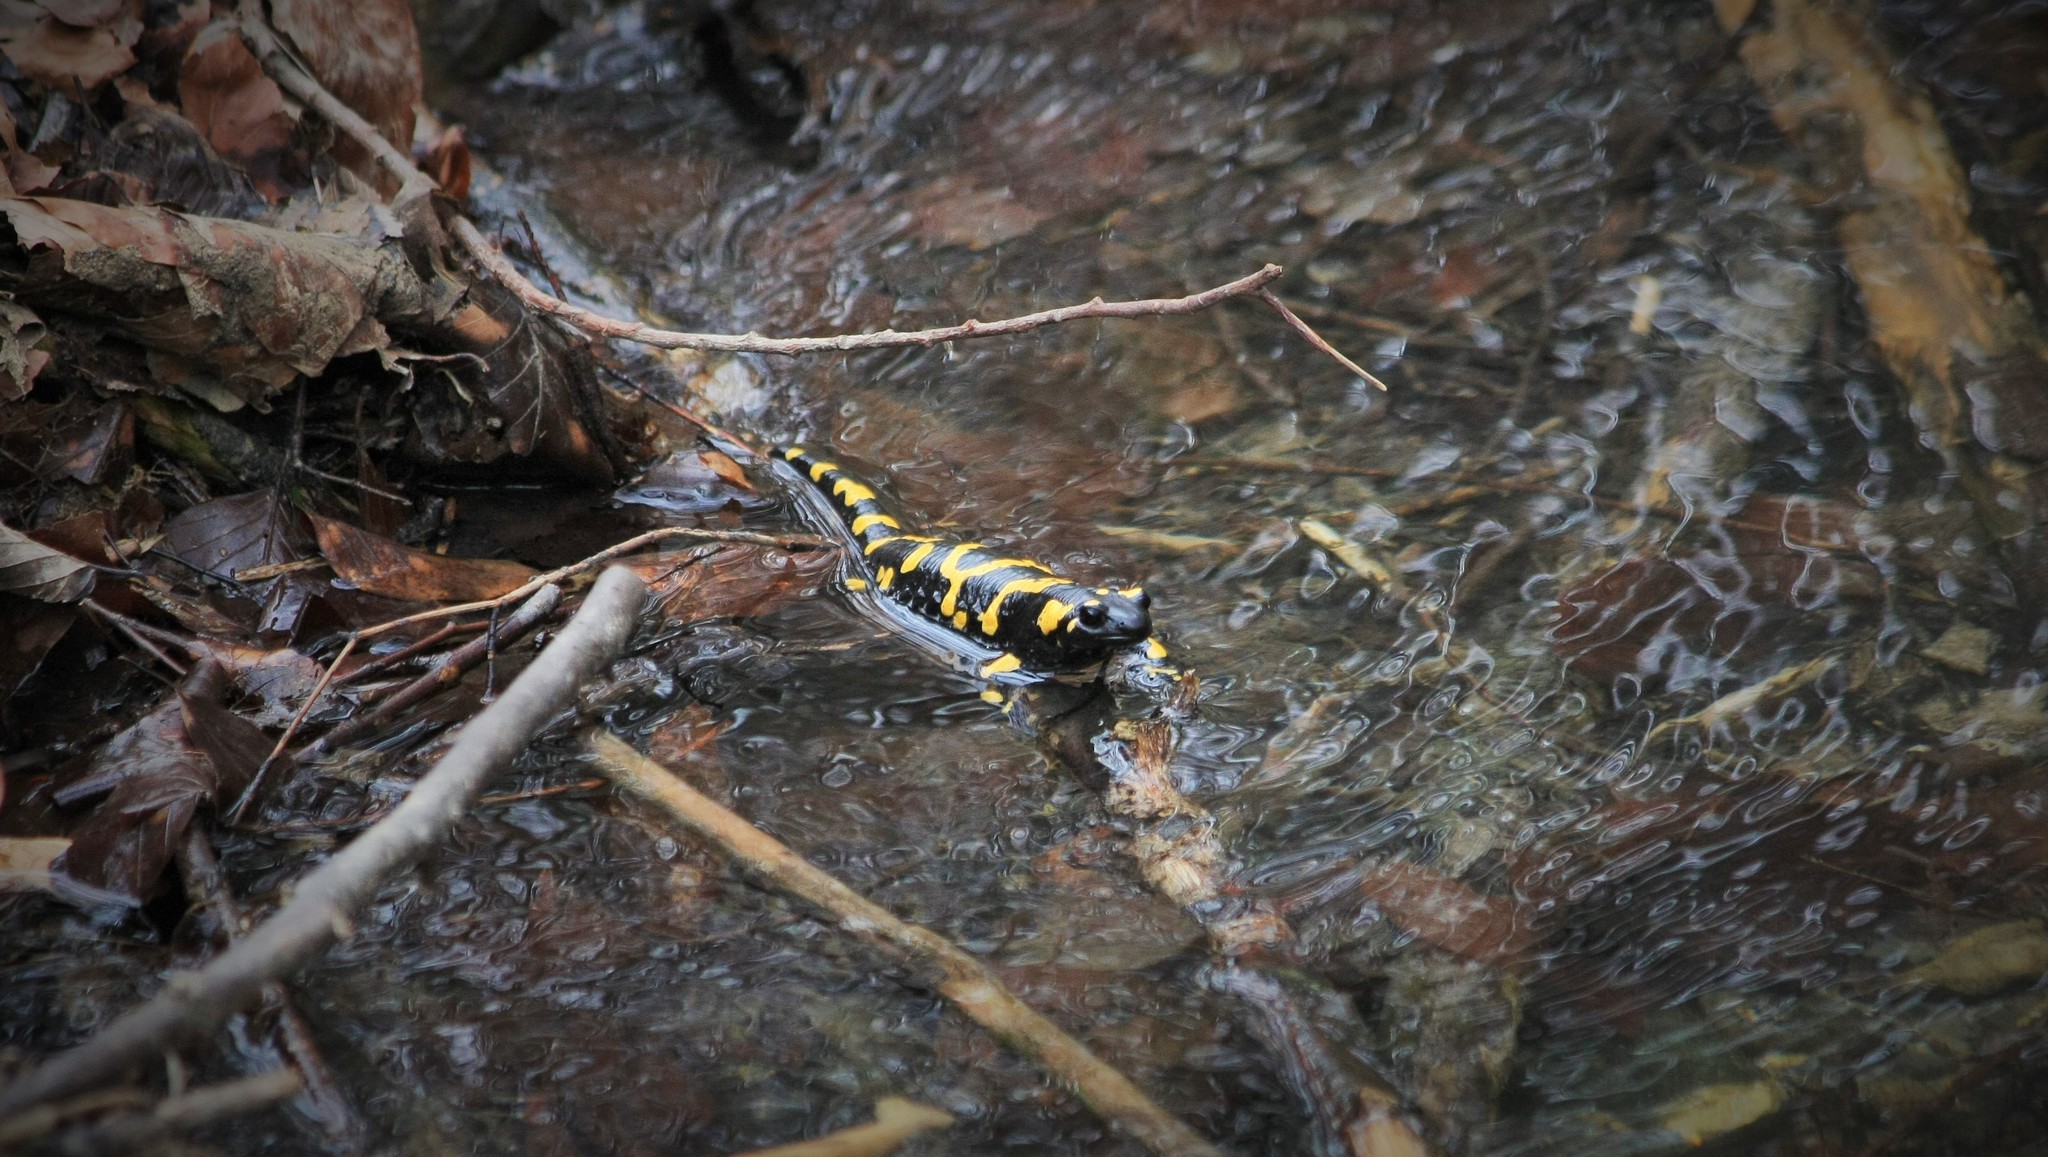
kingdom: Animalia
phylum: Chordata
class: Amphibia
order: Caudata
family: Salamandridae
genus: Salamandra
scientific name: Salamandra salamandra
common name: Fire salamander
